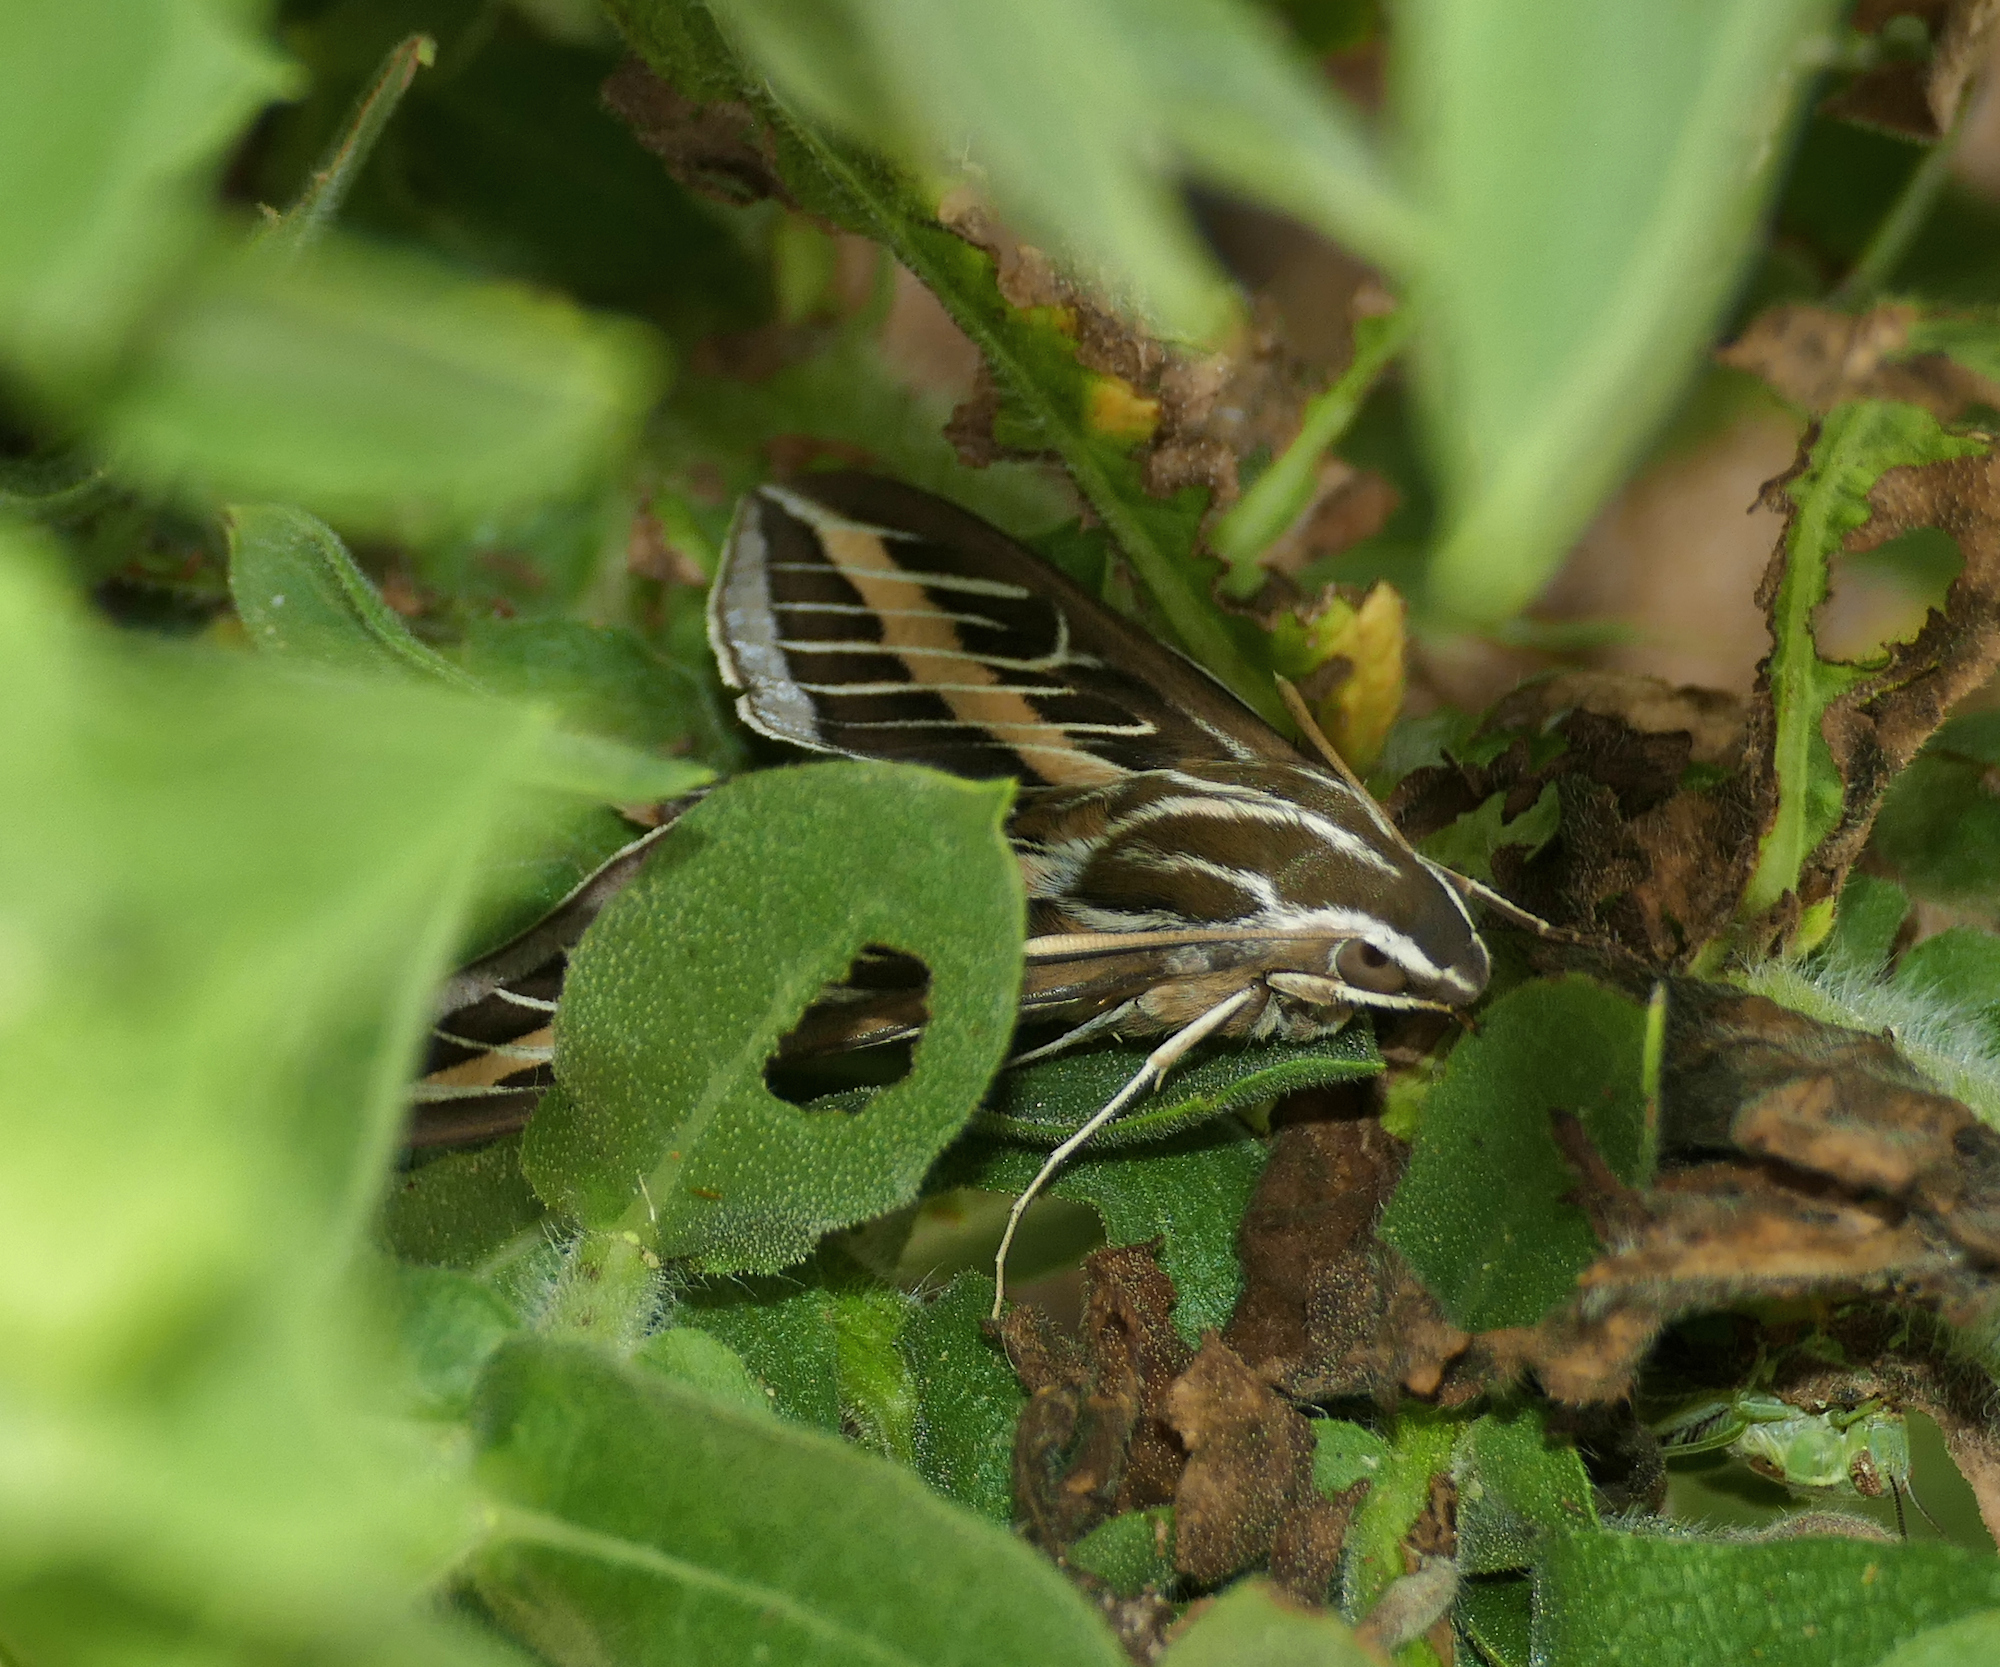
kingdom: Animalia
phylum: Arthropoda
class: Insecta
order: Lepidoptera
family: Sphingidae
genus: Hyles
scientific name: Hyles lineata
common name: White-lined sphinx
